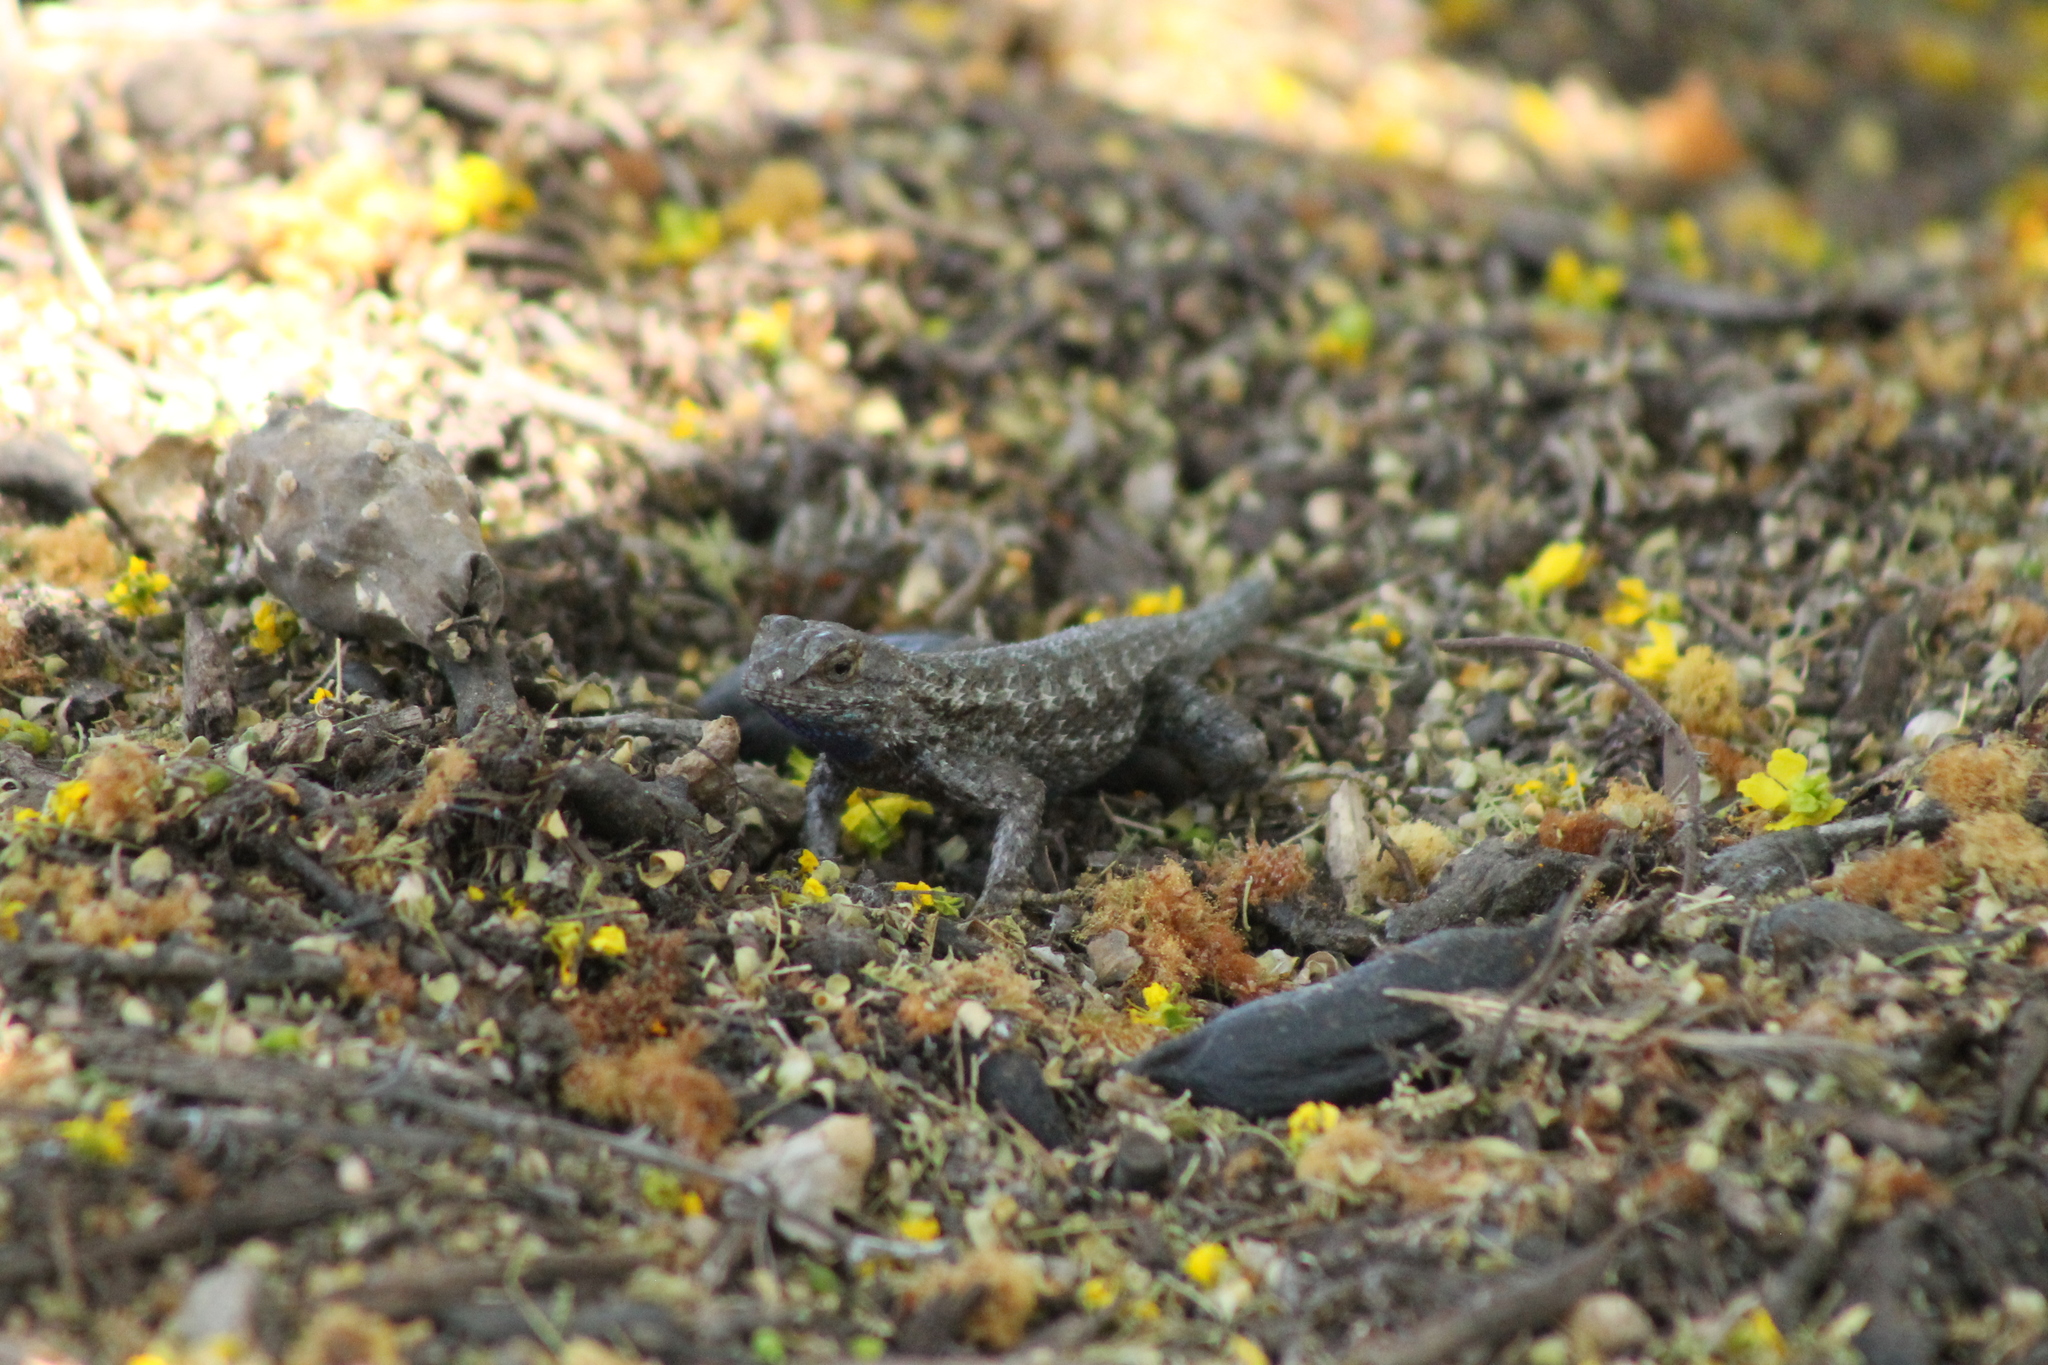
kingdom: Animalia
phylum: Chordata
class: Squamata
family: Phrynosomatidae
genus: Sceloporus
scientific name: Sceloporus occidentalis
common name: Western fence lizard
